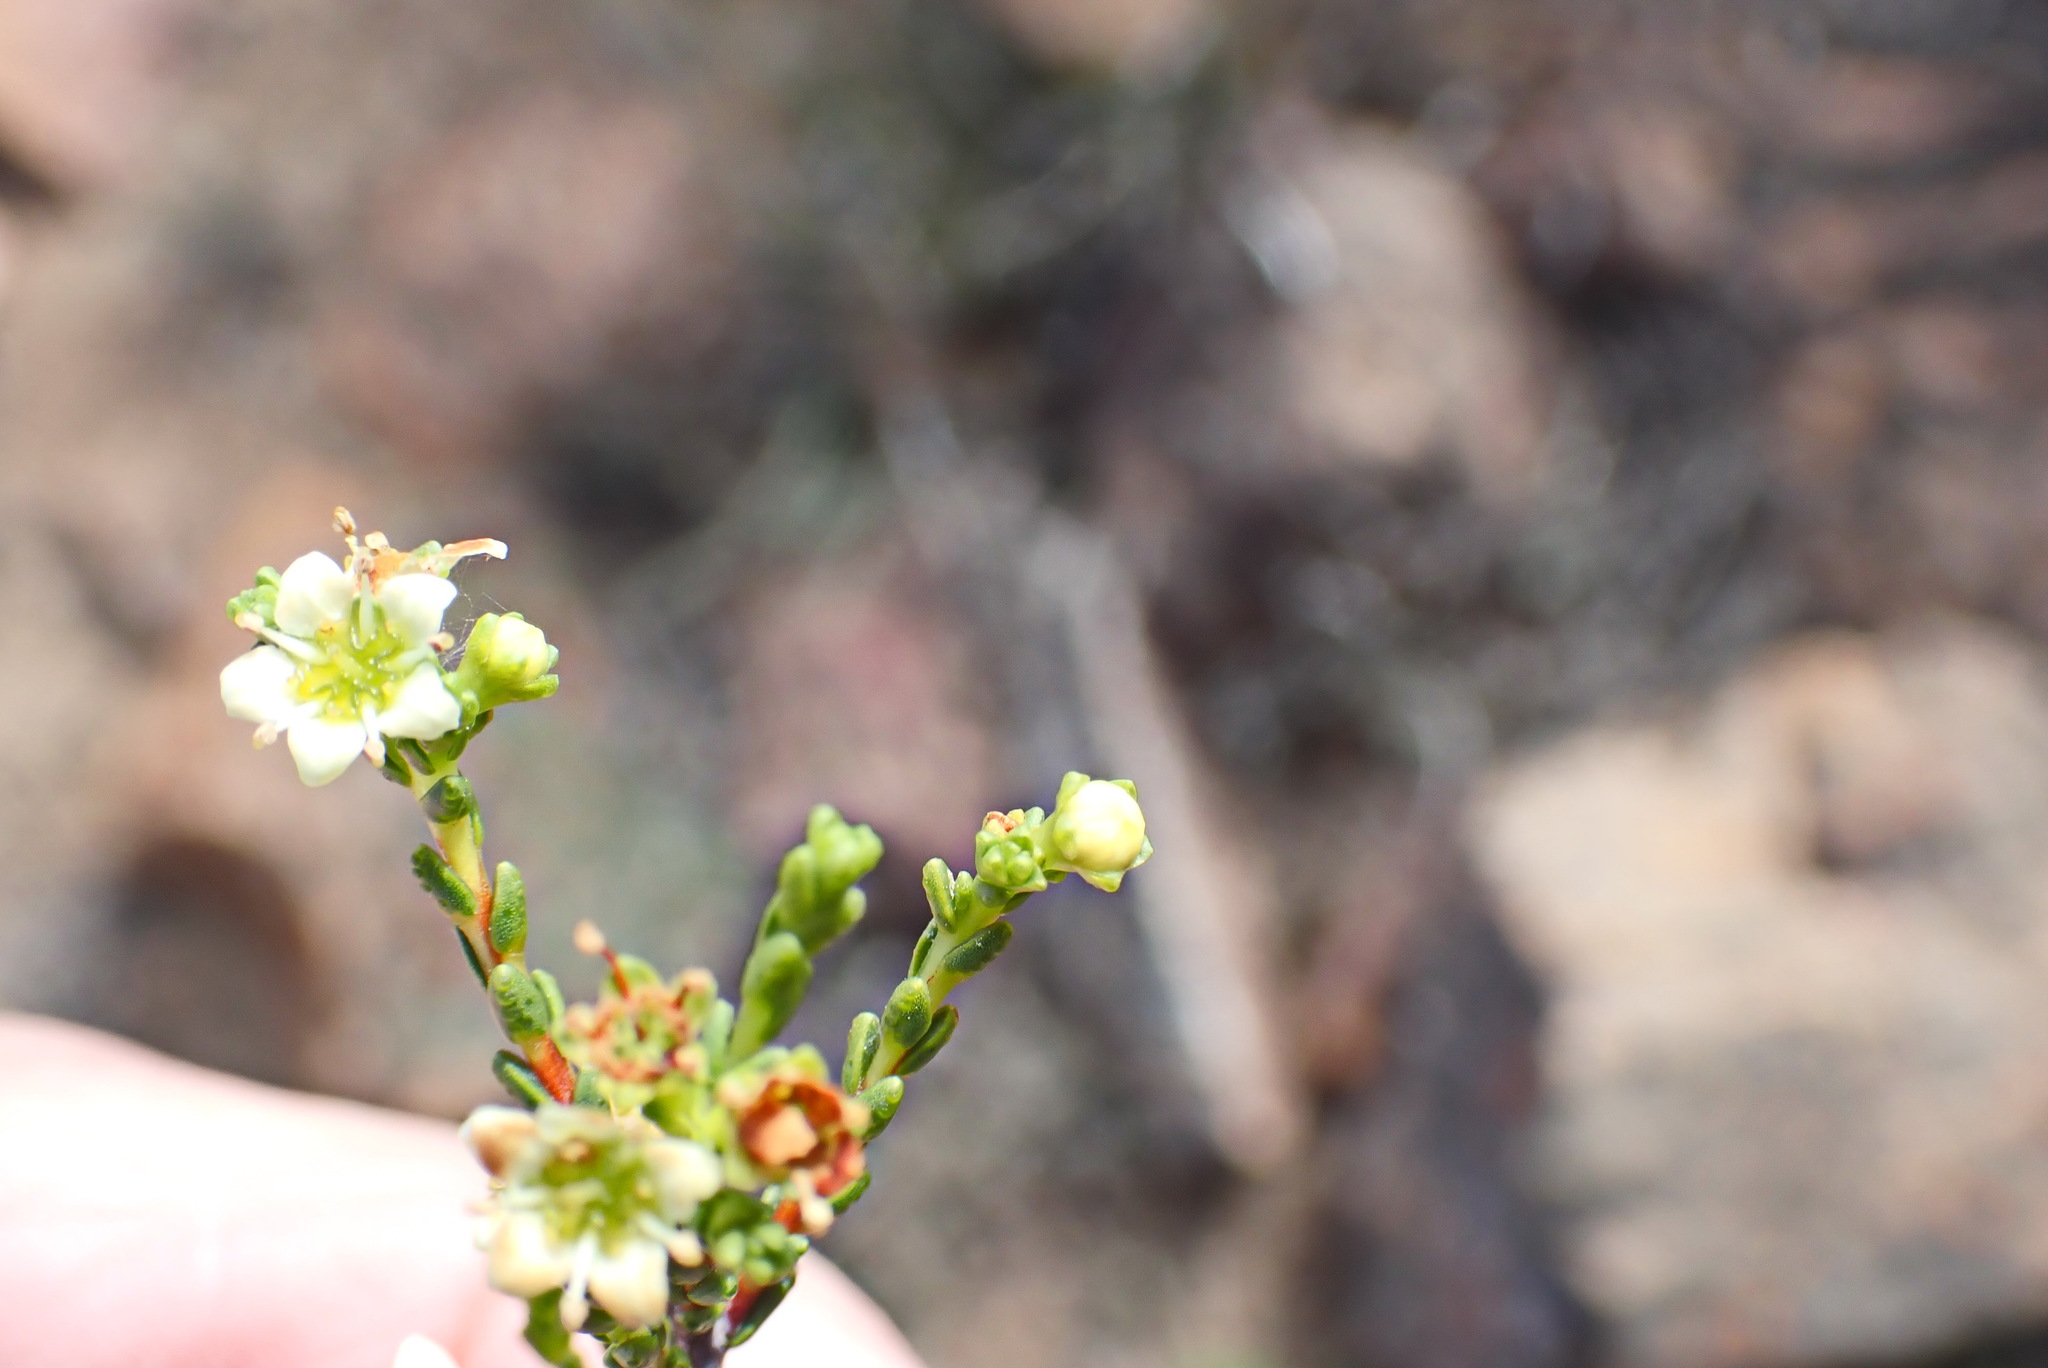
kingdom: Plantae
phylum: Tracheophyta
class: Magnoliopsida
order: Sapindales
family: Rutaceae
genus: Diosma
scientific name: Diosma prama
